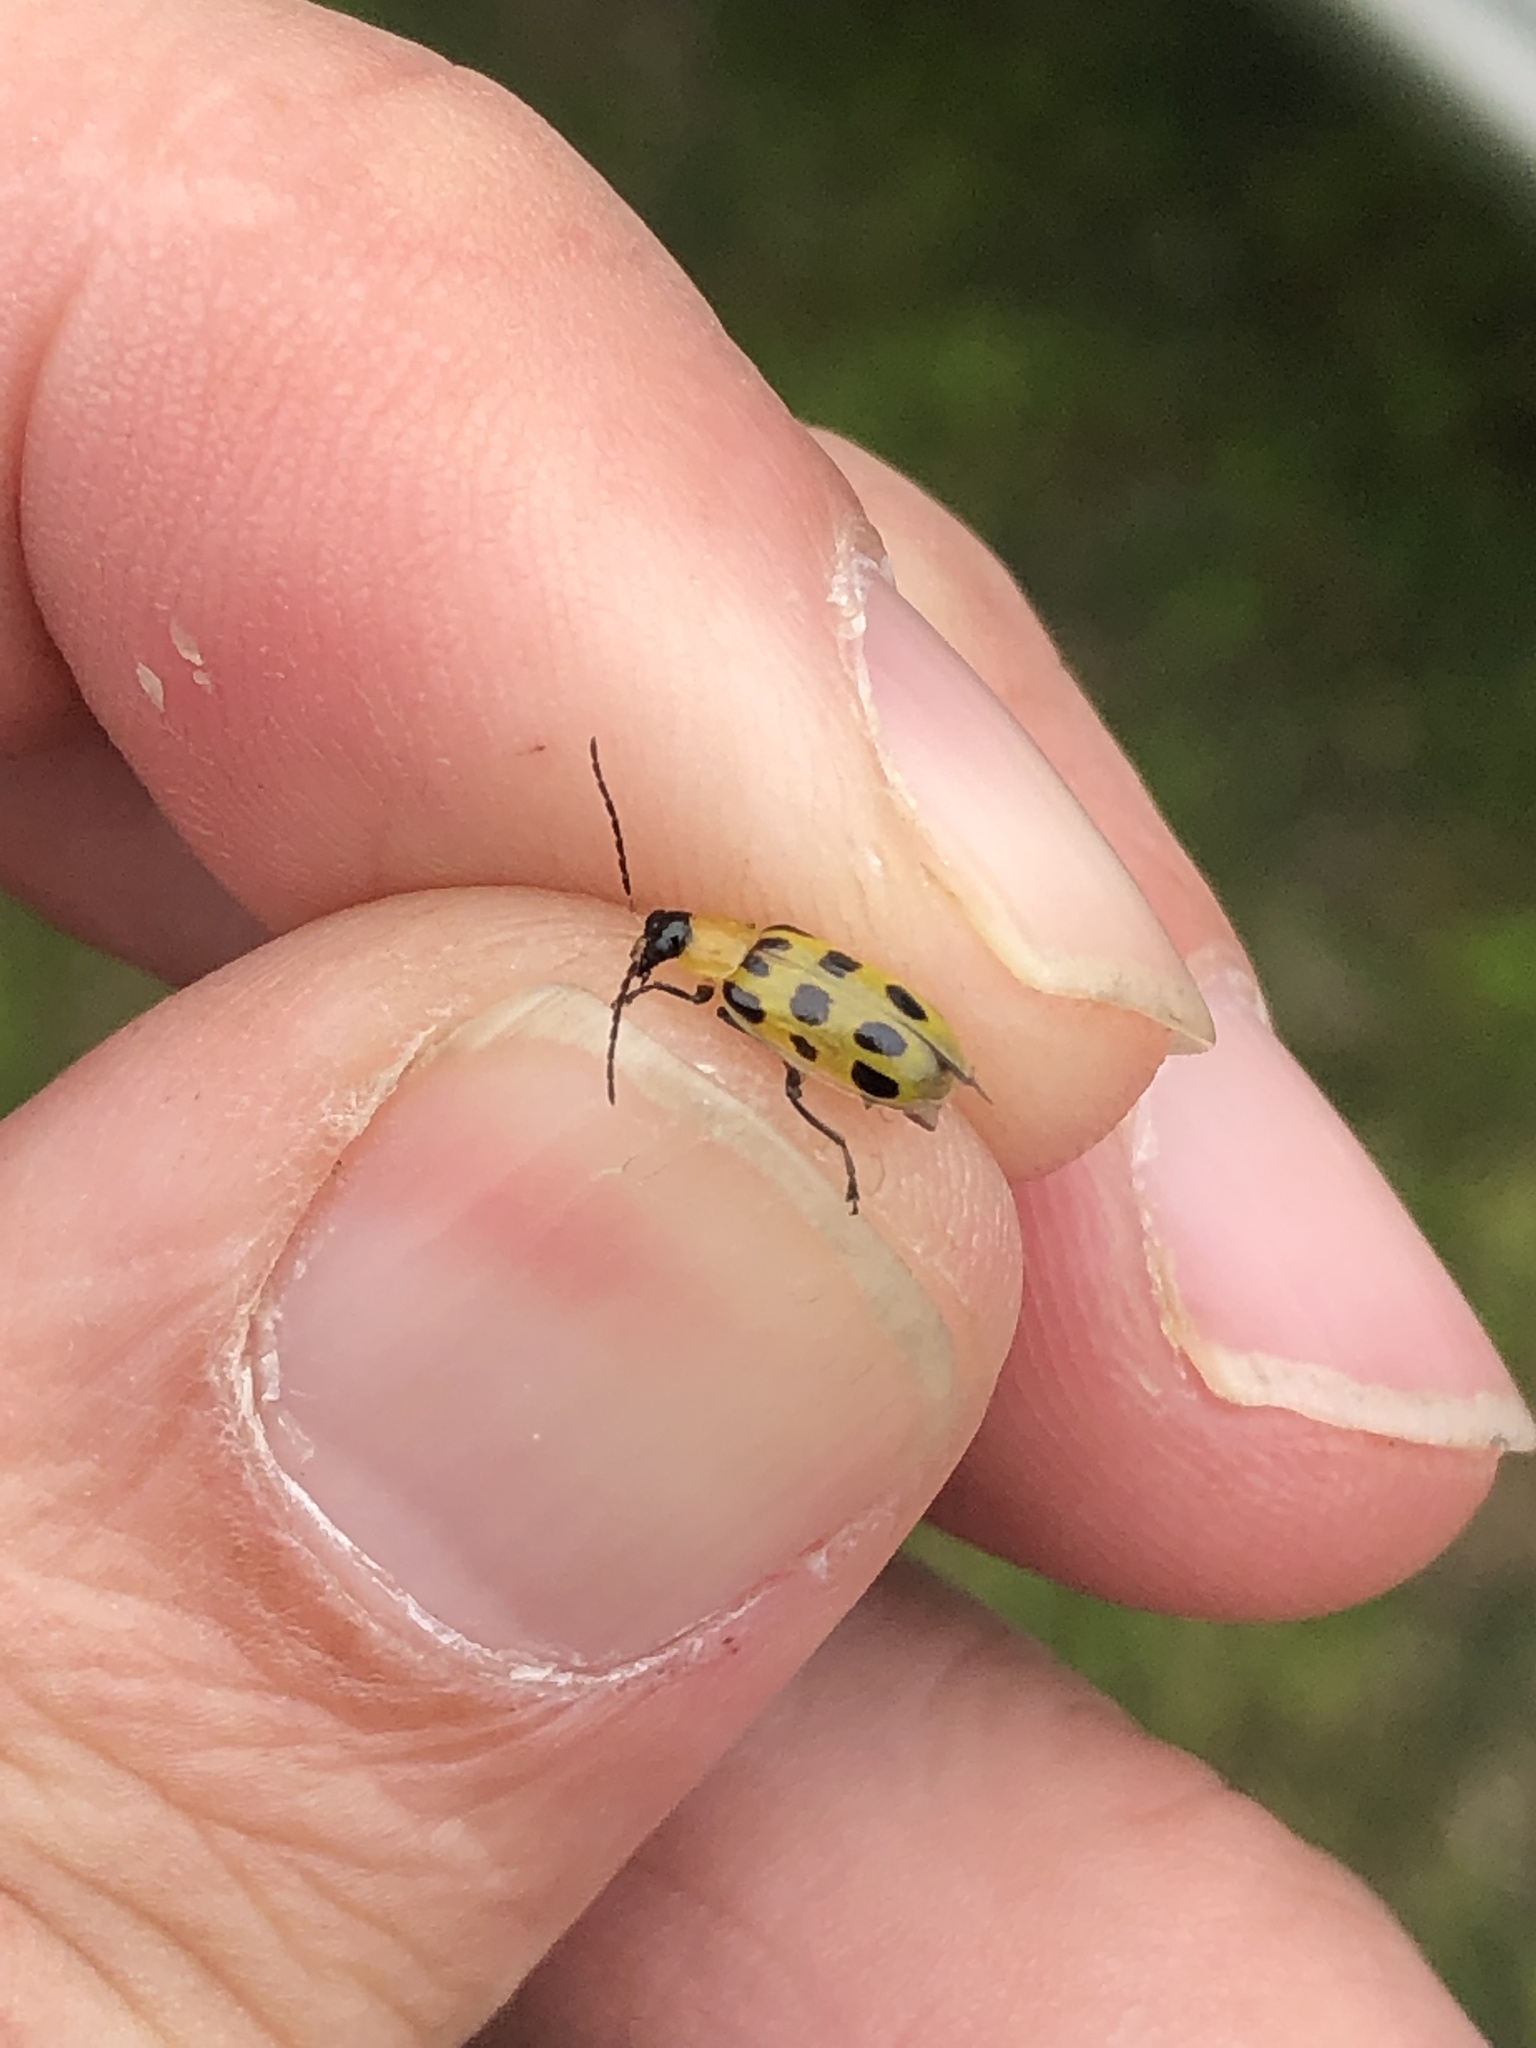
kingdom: Animalia
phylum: Arthropoda
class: Insecta
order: Coleoptera
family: Chrysomelidae
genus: Diabrotica
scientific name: Diabrotica undecimpunctata
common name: Spotted cucumber beetle
